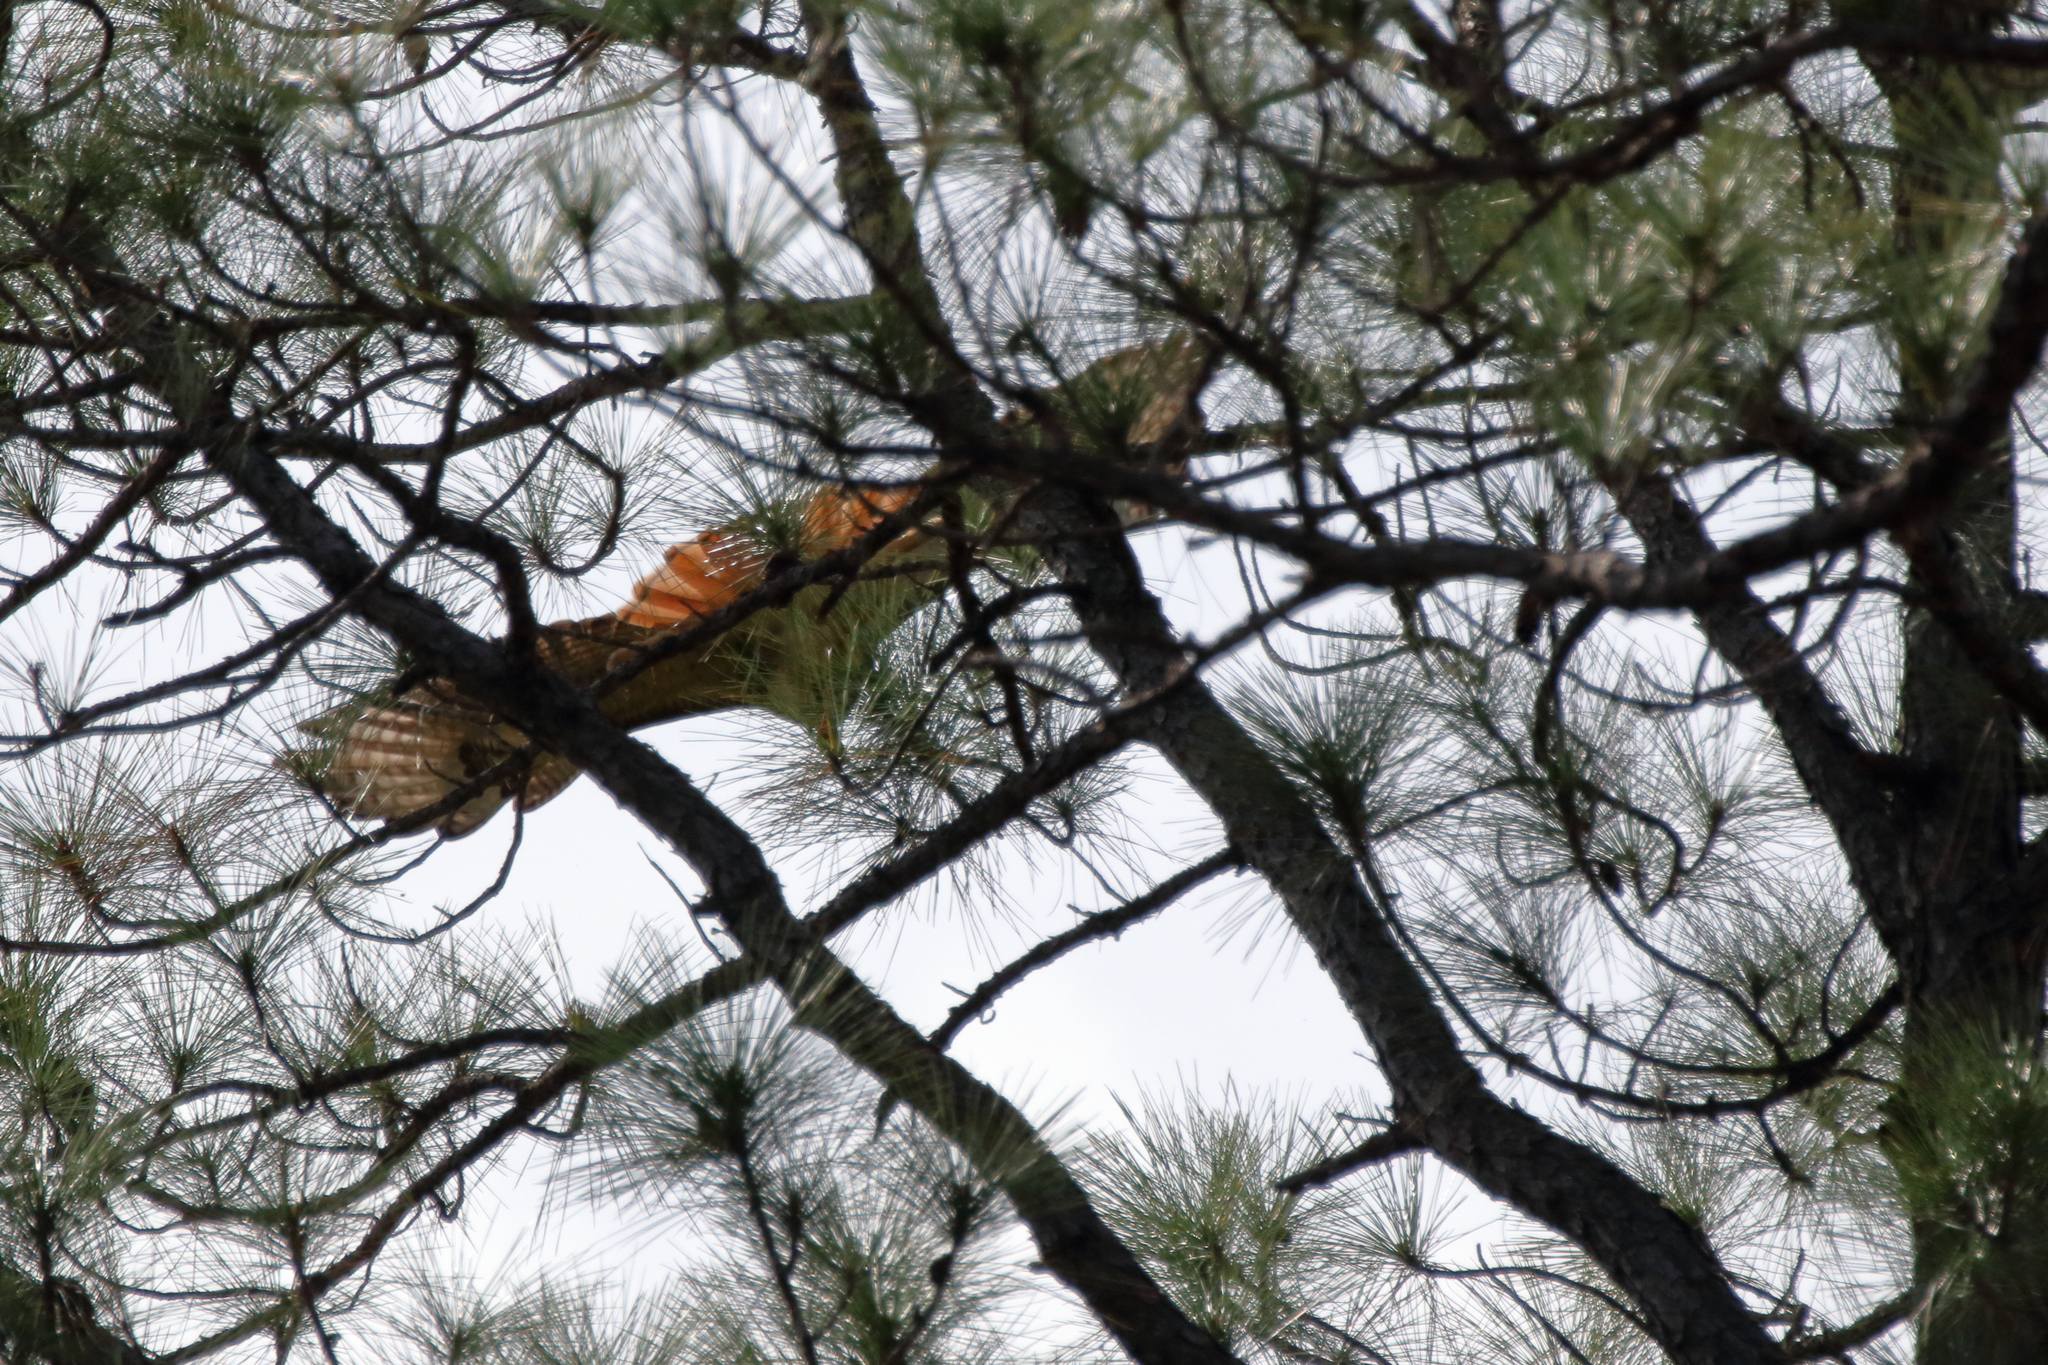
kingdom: Animalia
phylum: Chordata
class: Aves
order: Accipitriformes
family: Accipitridae
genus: Buteo
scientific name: Buteo jamaicensis
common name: Red-tailed hawk
